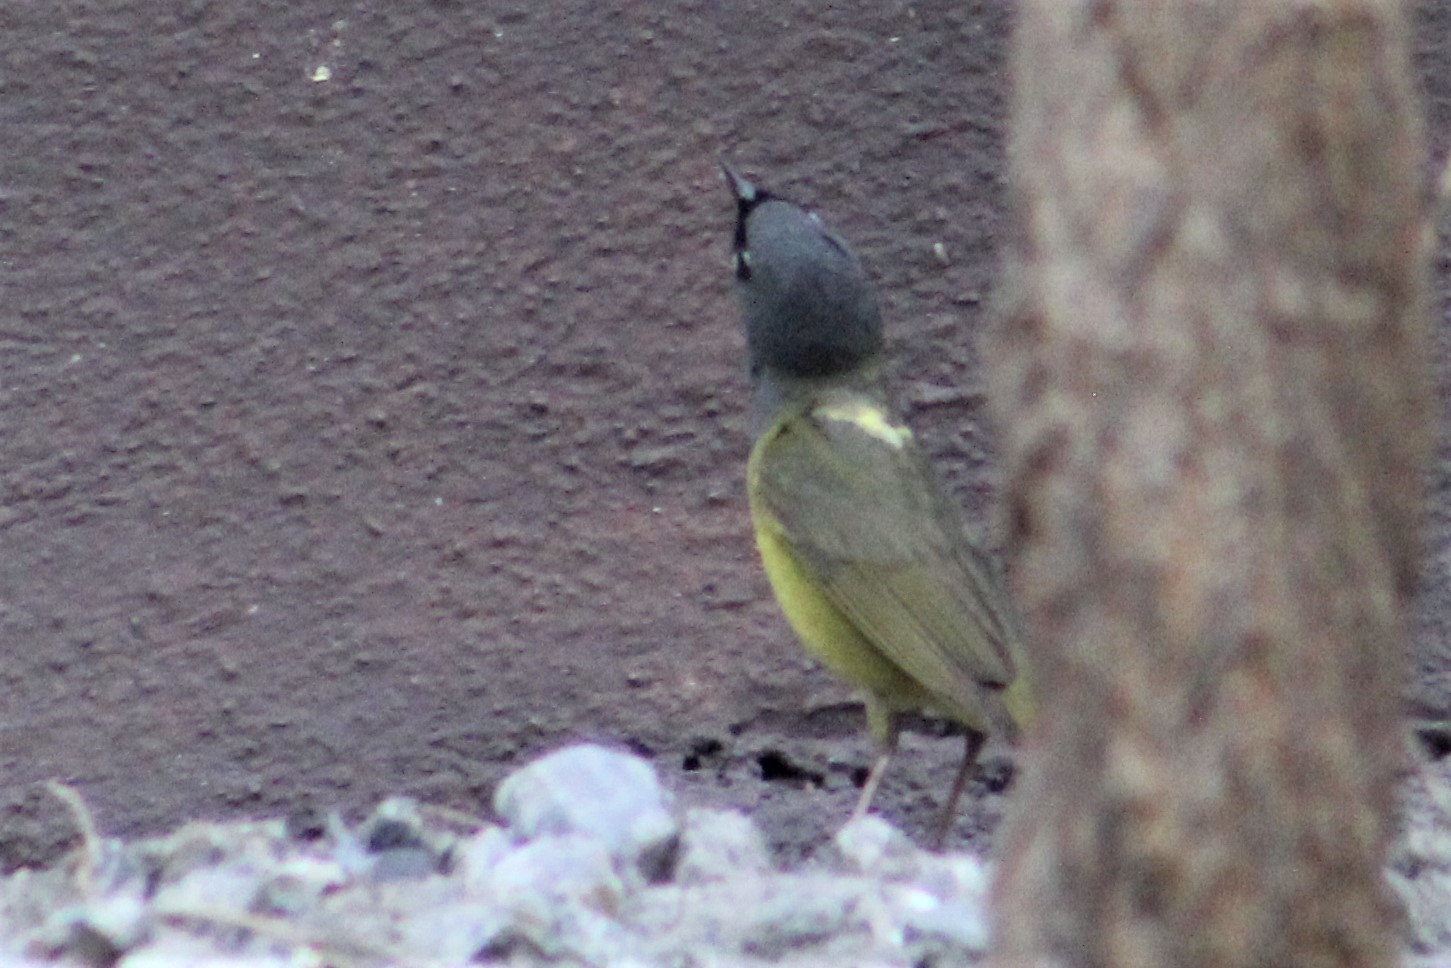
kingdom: Animalia
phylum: Chordata
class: Aves
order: Passeriformes
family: Parulidae
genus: Geothlypis
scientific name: Geothlypis tolmiei
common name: Macgillivray's warbler
